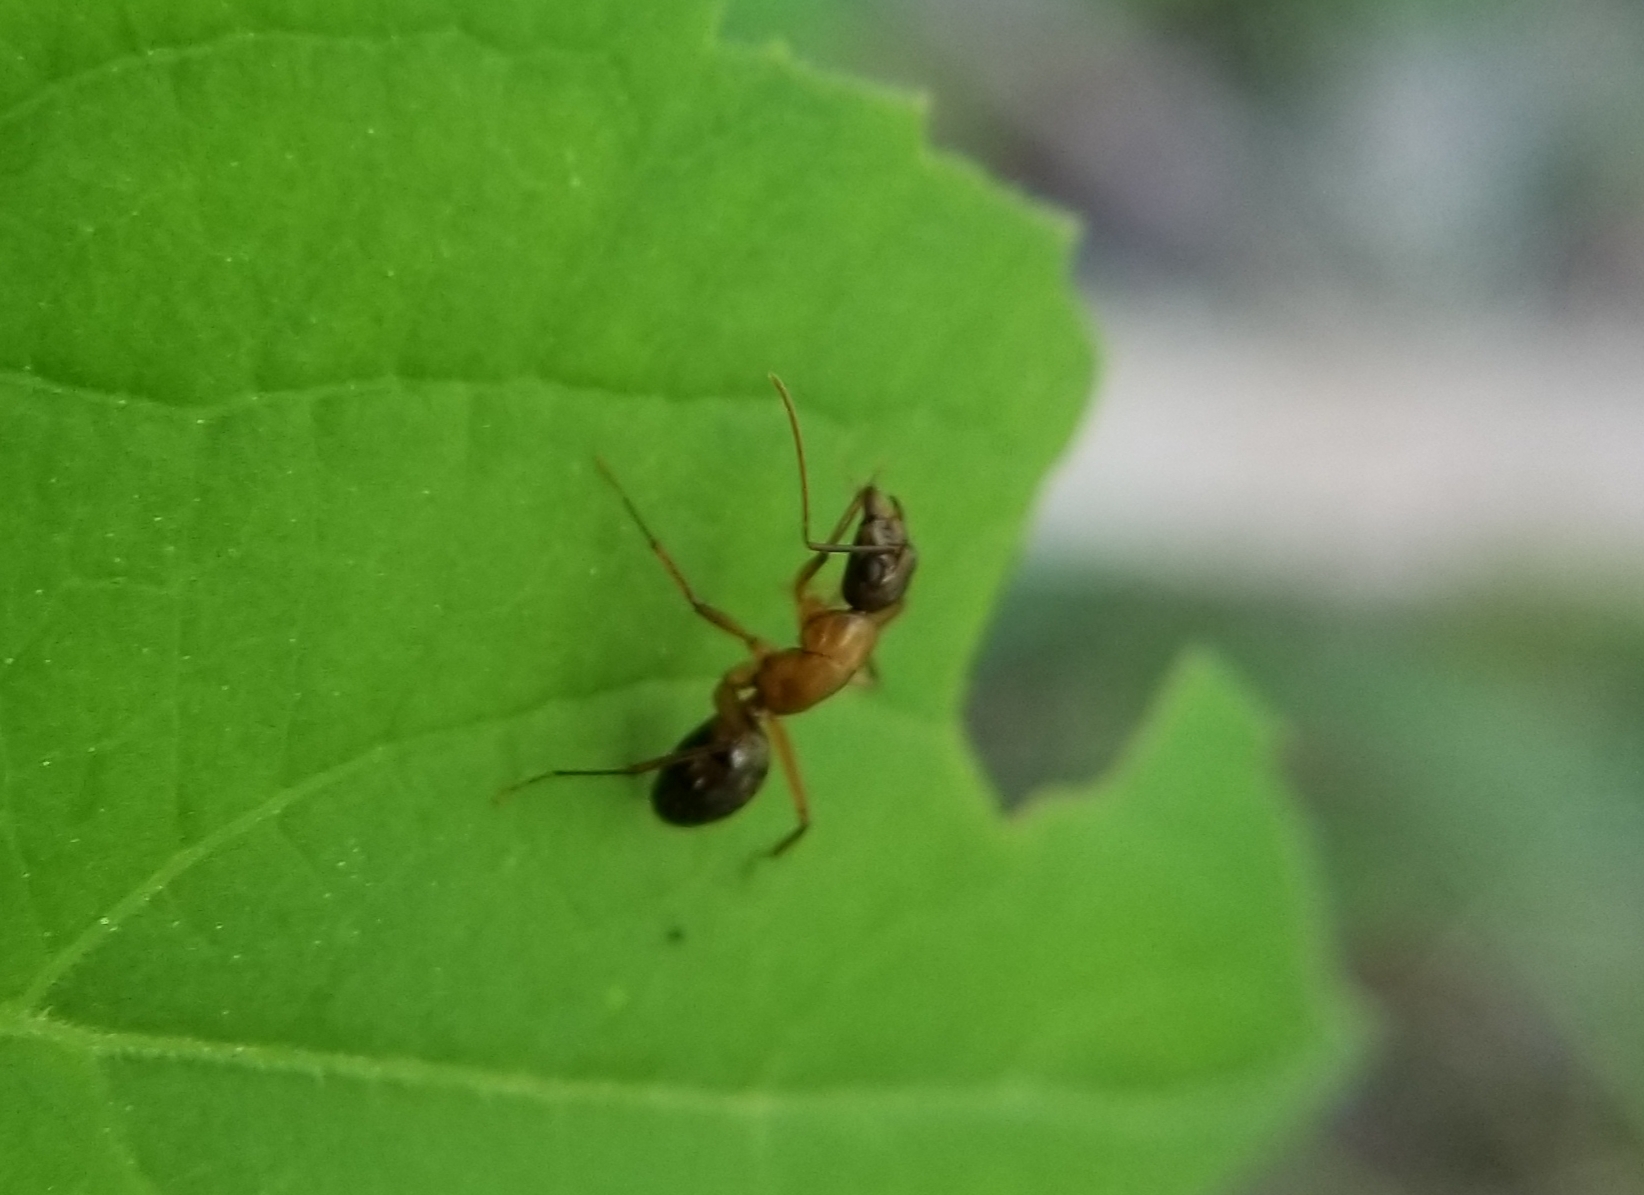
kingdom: Animalia
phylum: Arthropoda
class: Insecta
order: Hymenoptera
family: Formicidae
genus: Camponotus
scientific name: Camponotus texanus
